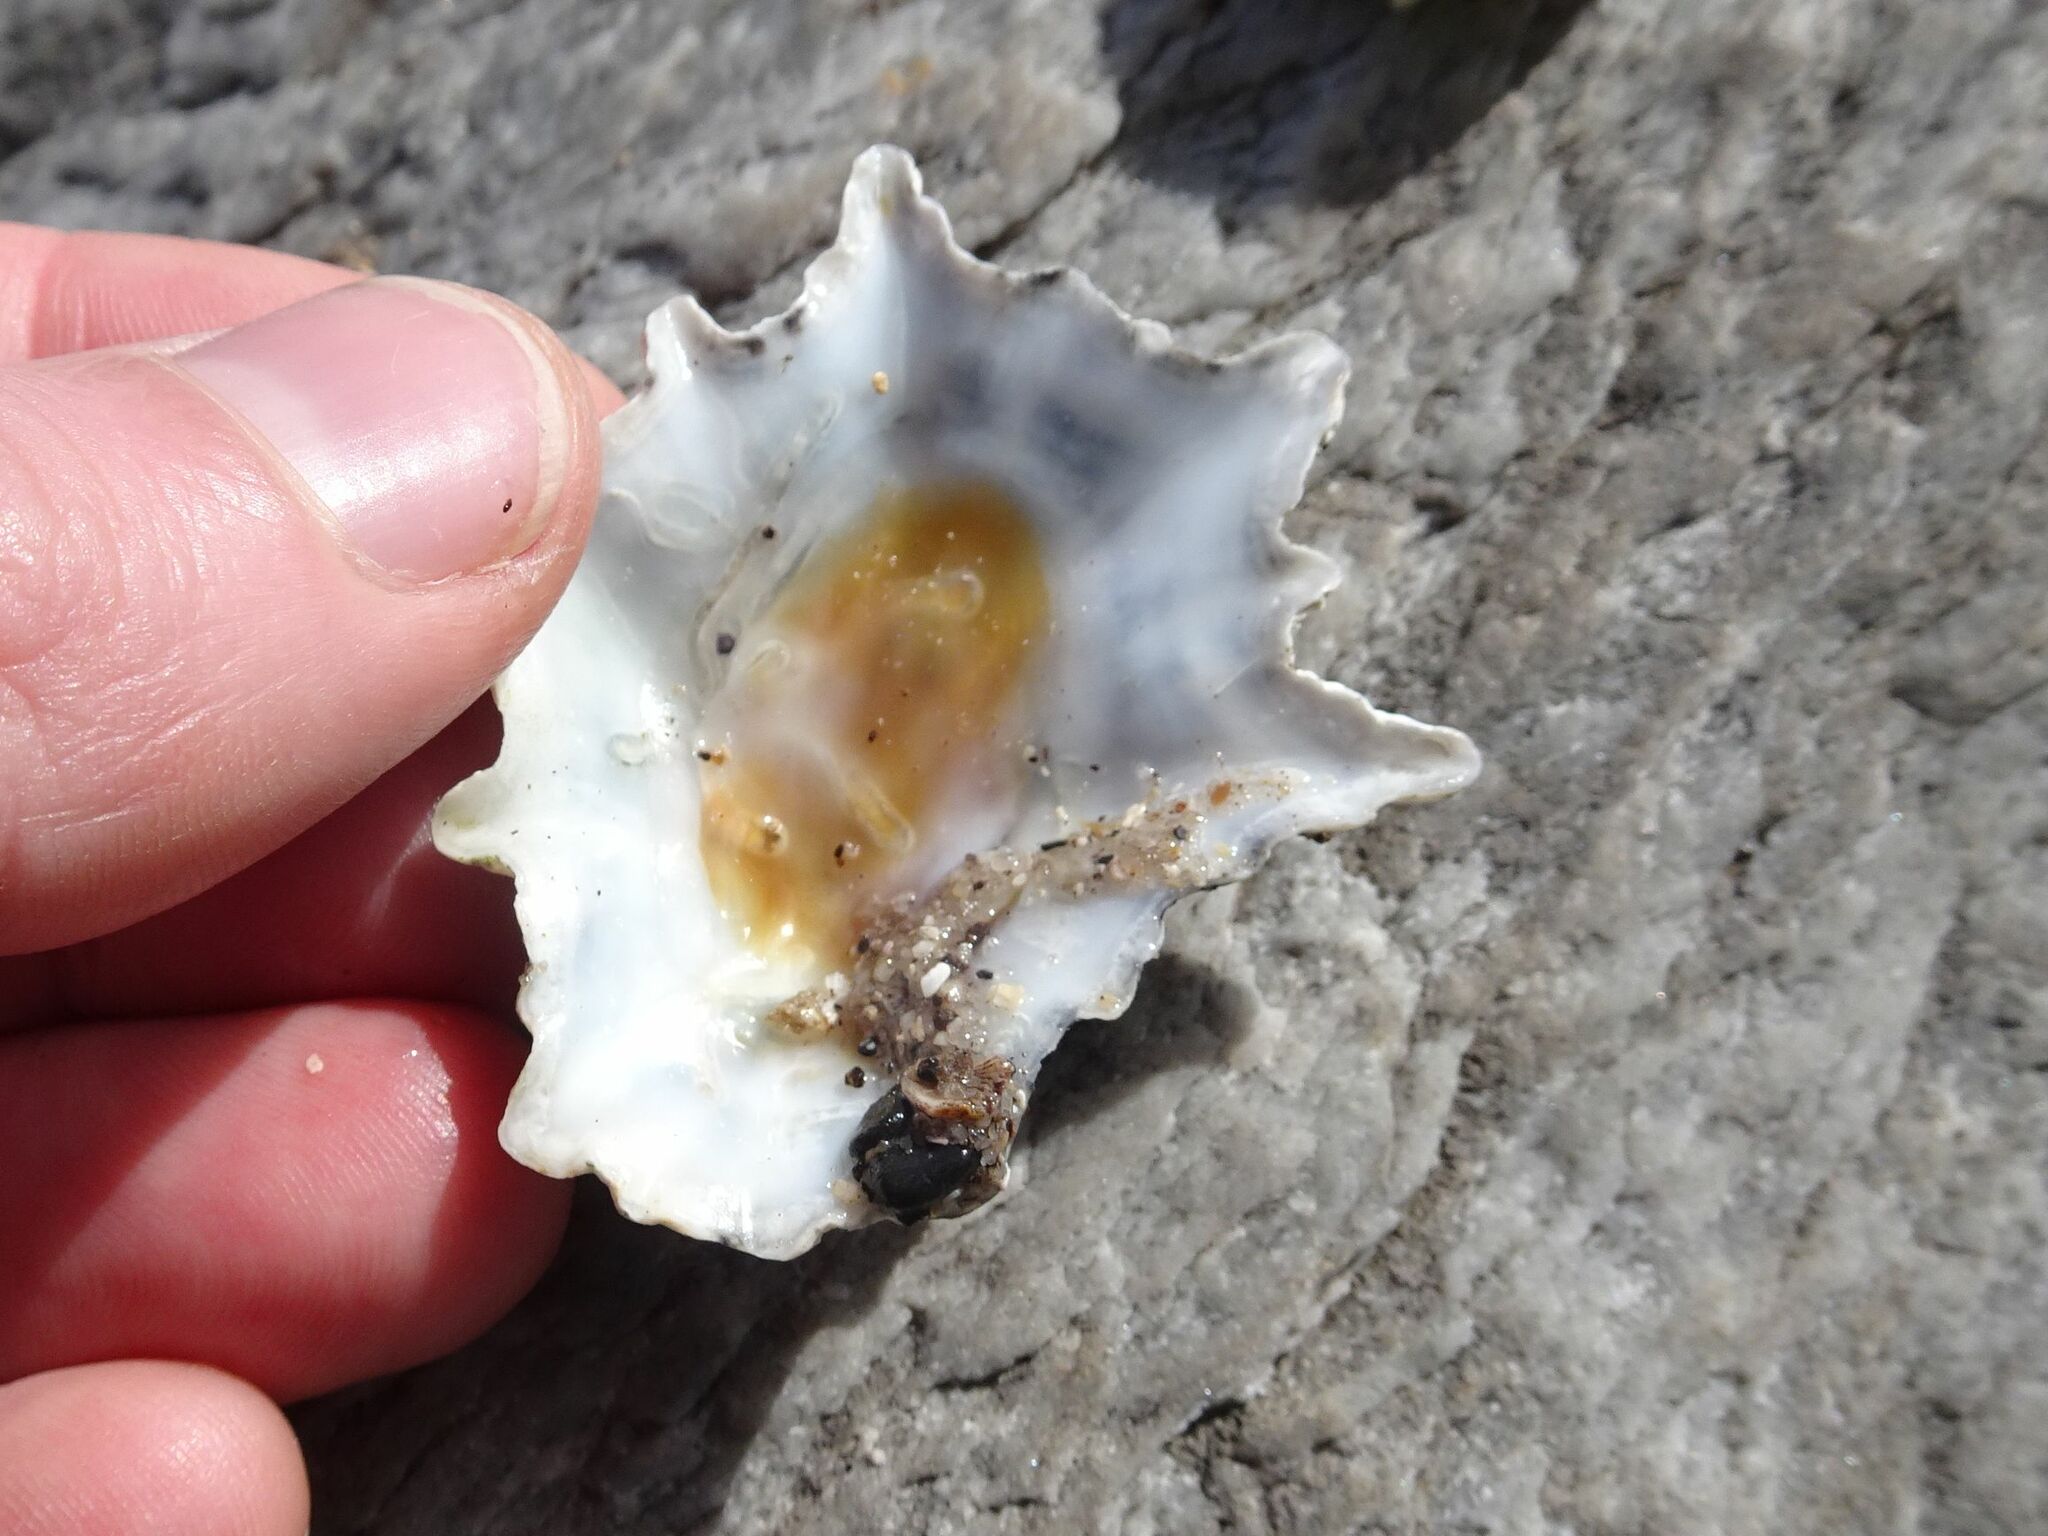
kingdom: Animalia
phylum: Mollusca
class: Gastropoda
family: Patellidae
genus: Scutellastra
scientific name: Scutellastra longicosta
